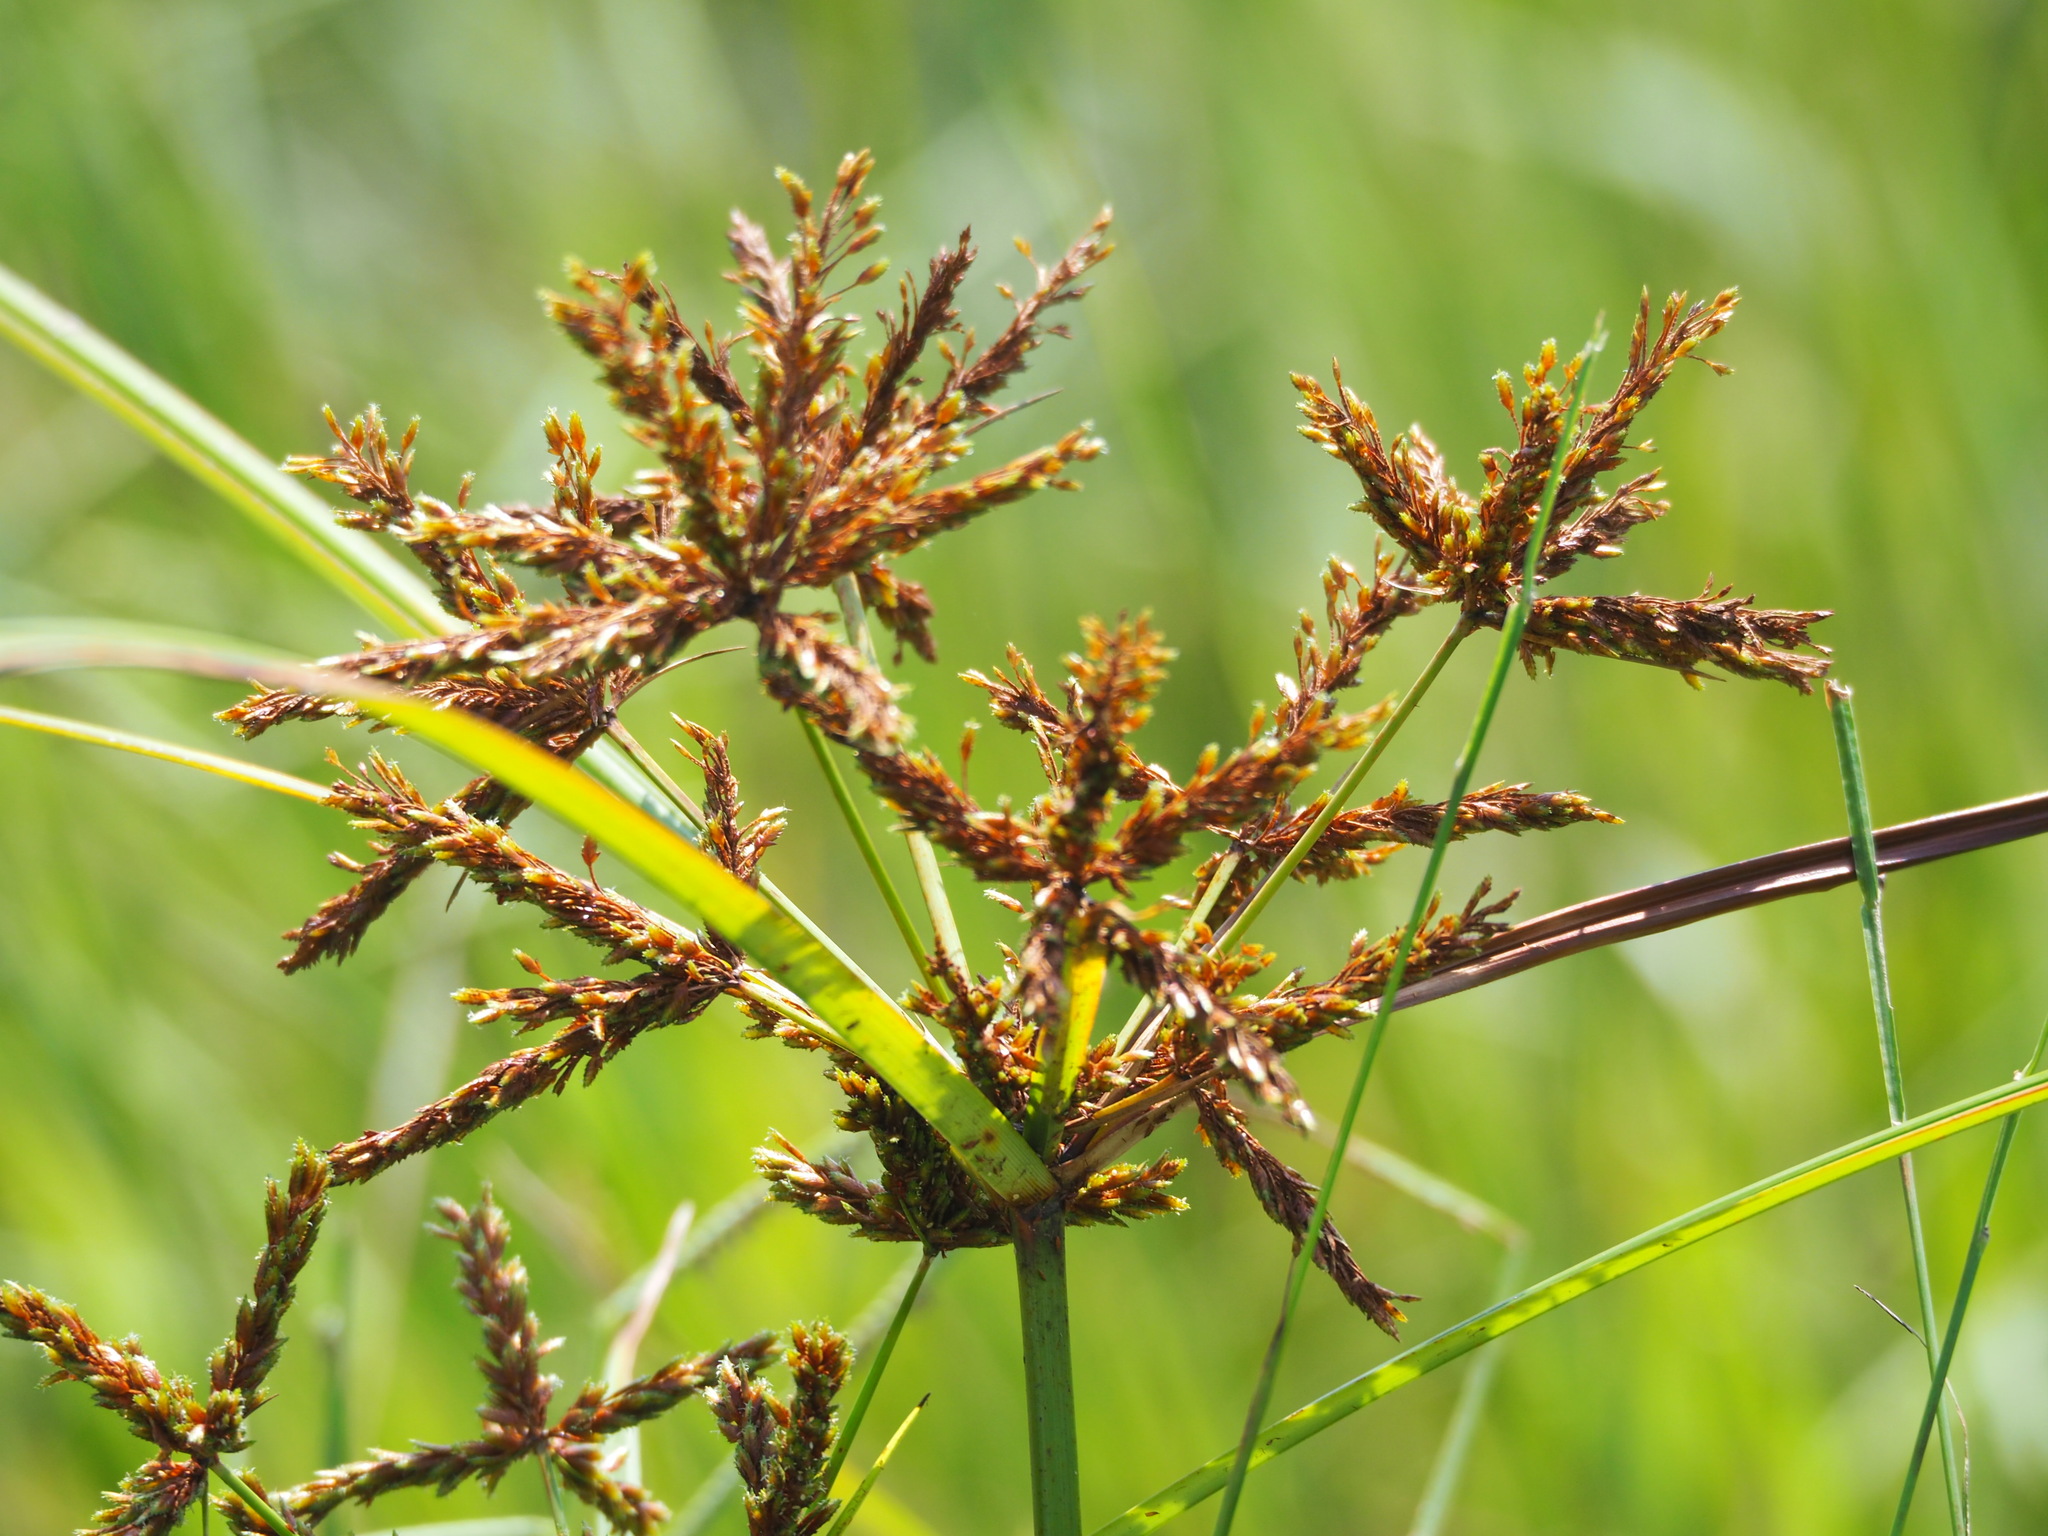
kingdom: Plantae
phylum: Tracheophyta
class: Liliopsida
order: Poales
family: Cyperaceae
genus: Cyperus
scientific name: Cyperus imbricatus
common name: Shingle flatsedge
